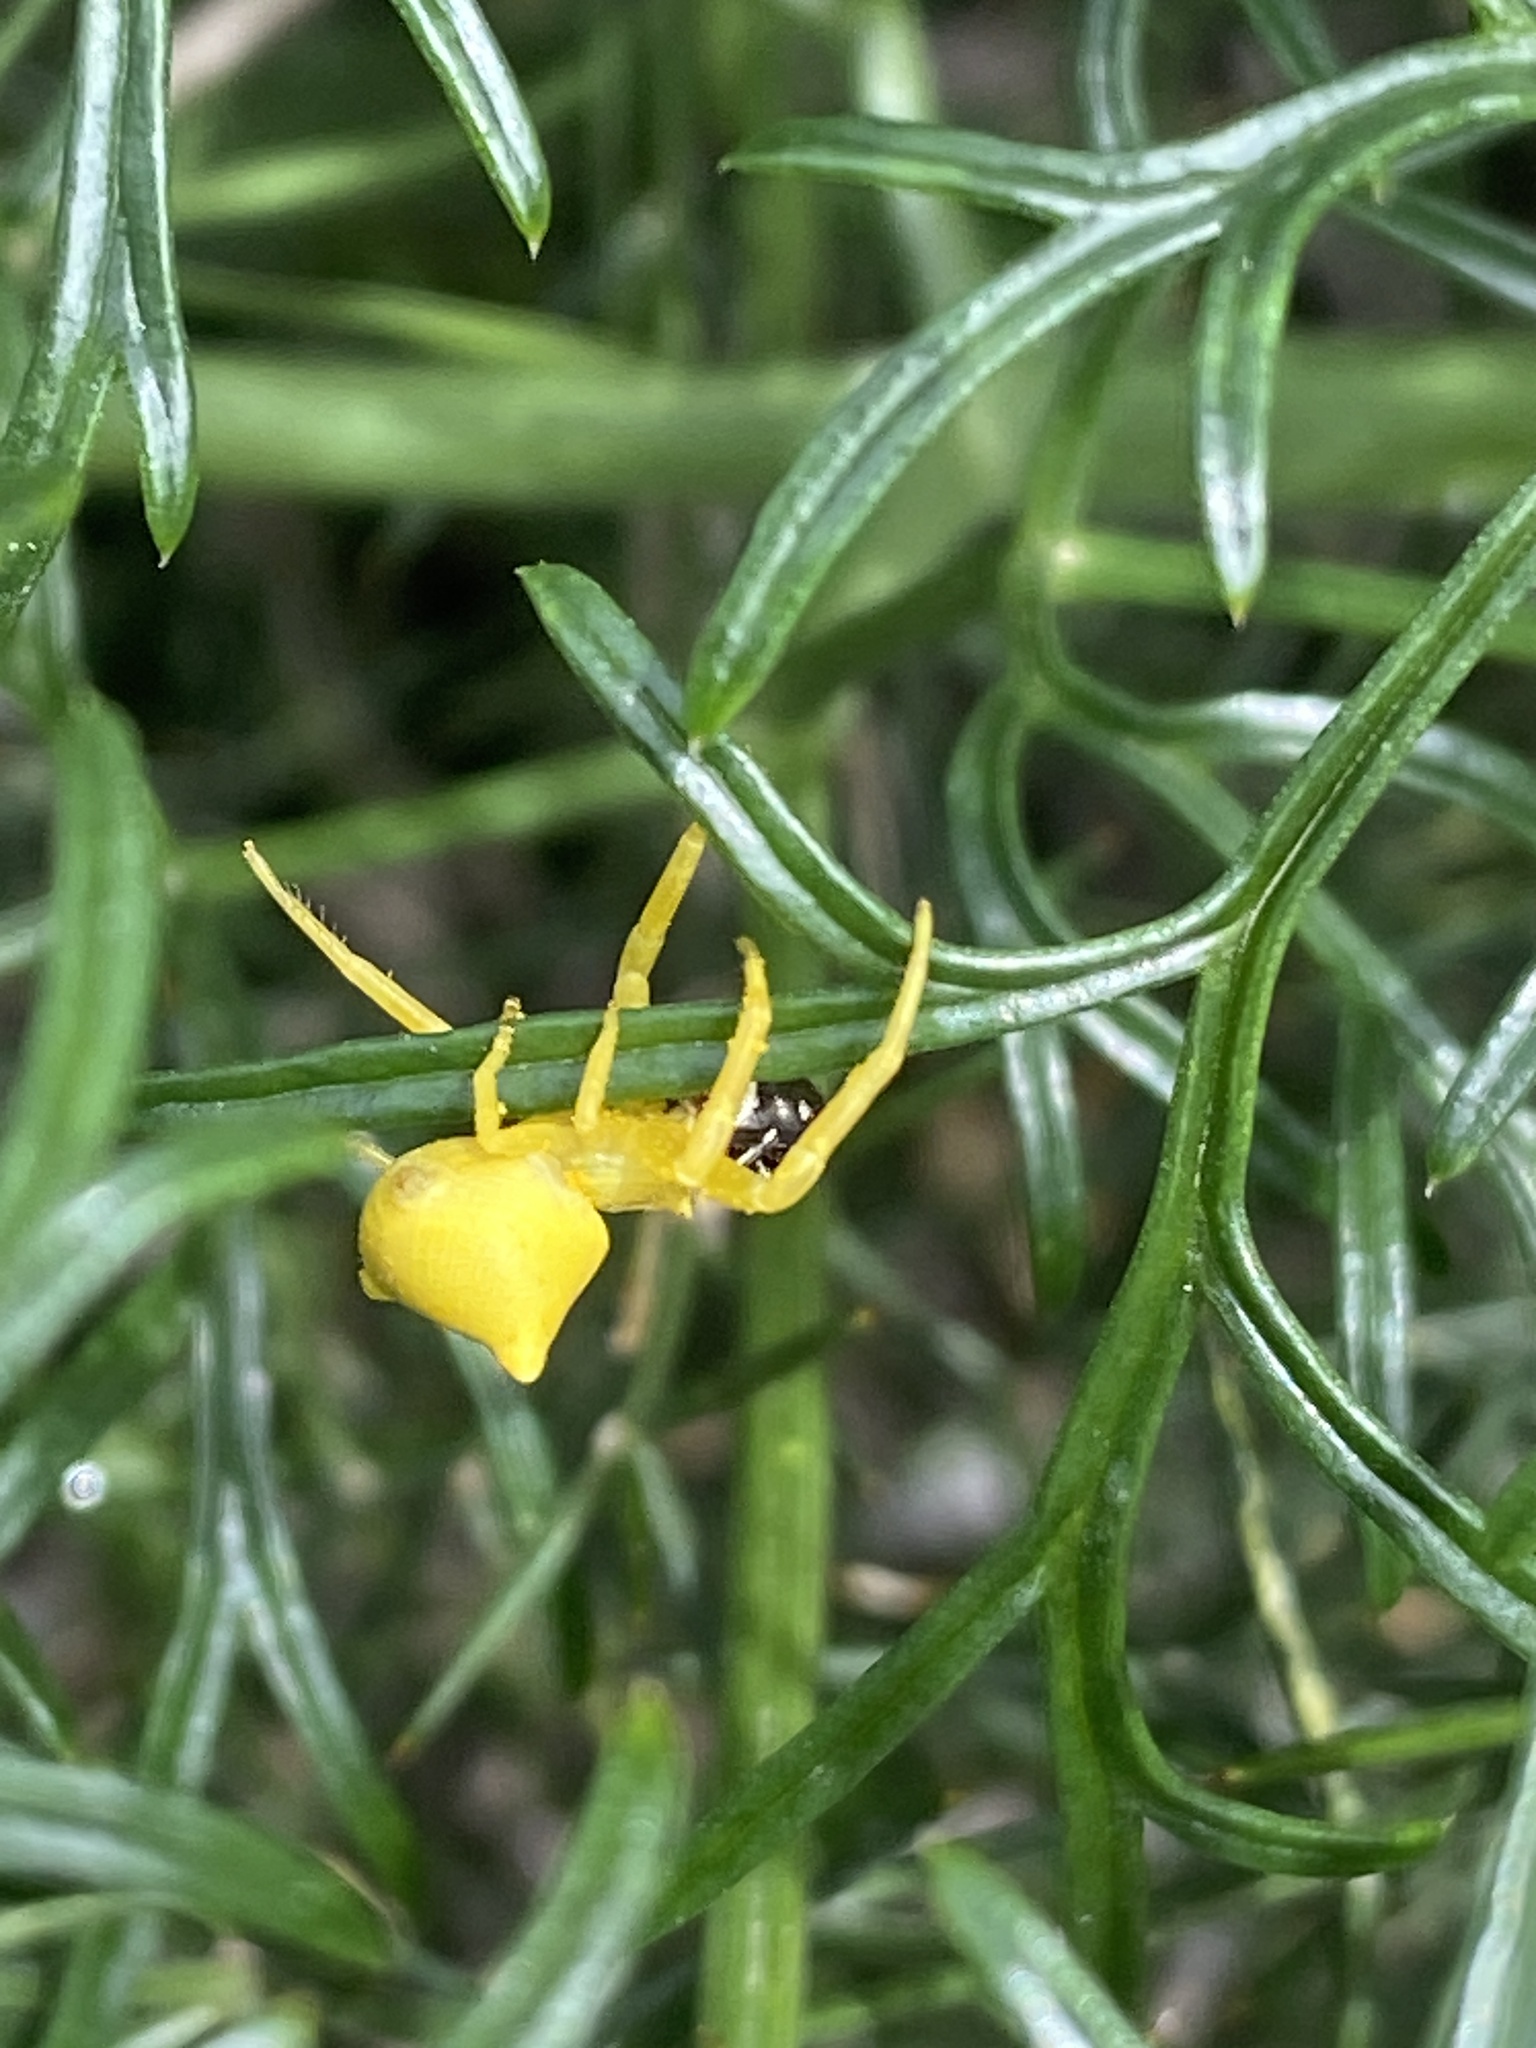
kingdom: Animalia
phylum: Arthropoda
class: Arachnida
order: Araneae
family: Thomisidae
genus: Thomisus
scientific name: Thomisus onustus
